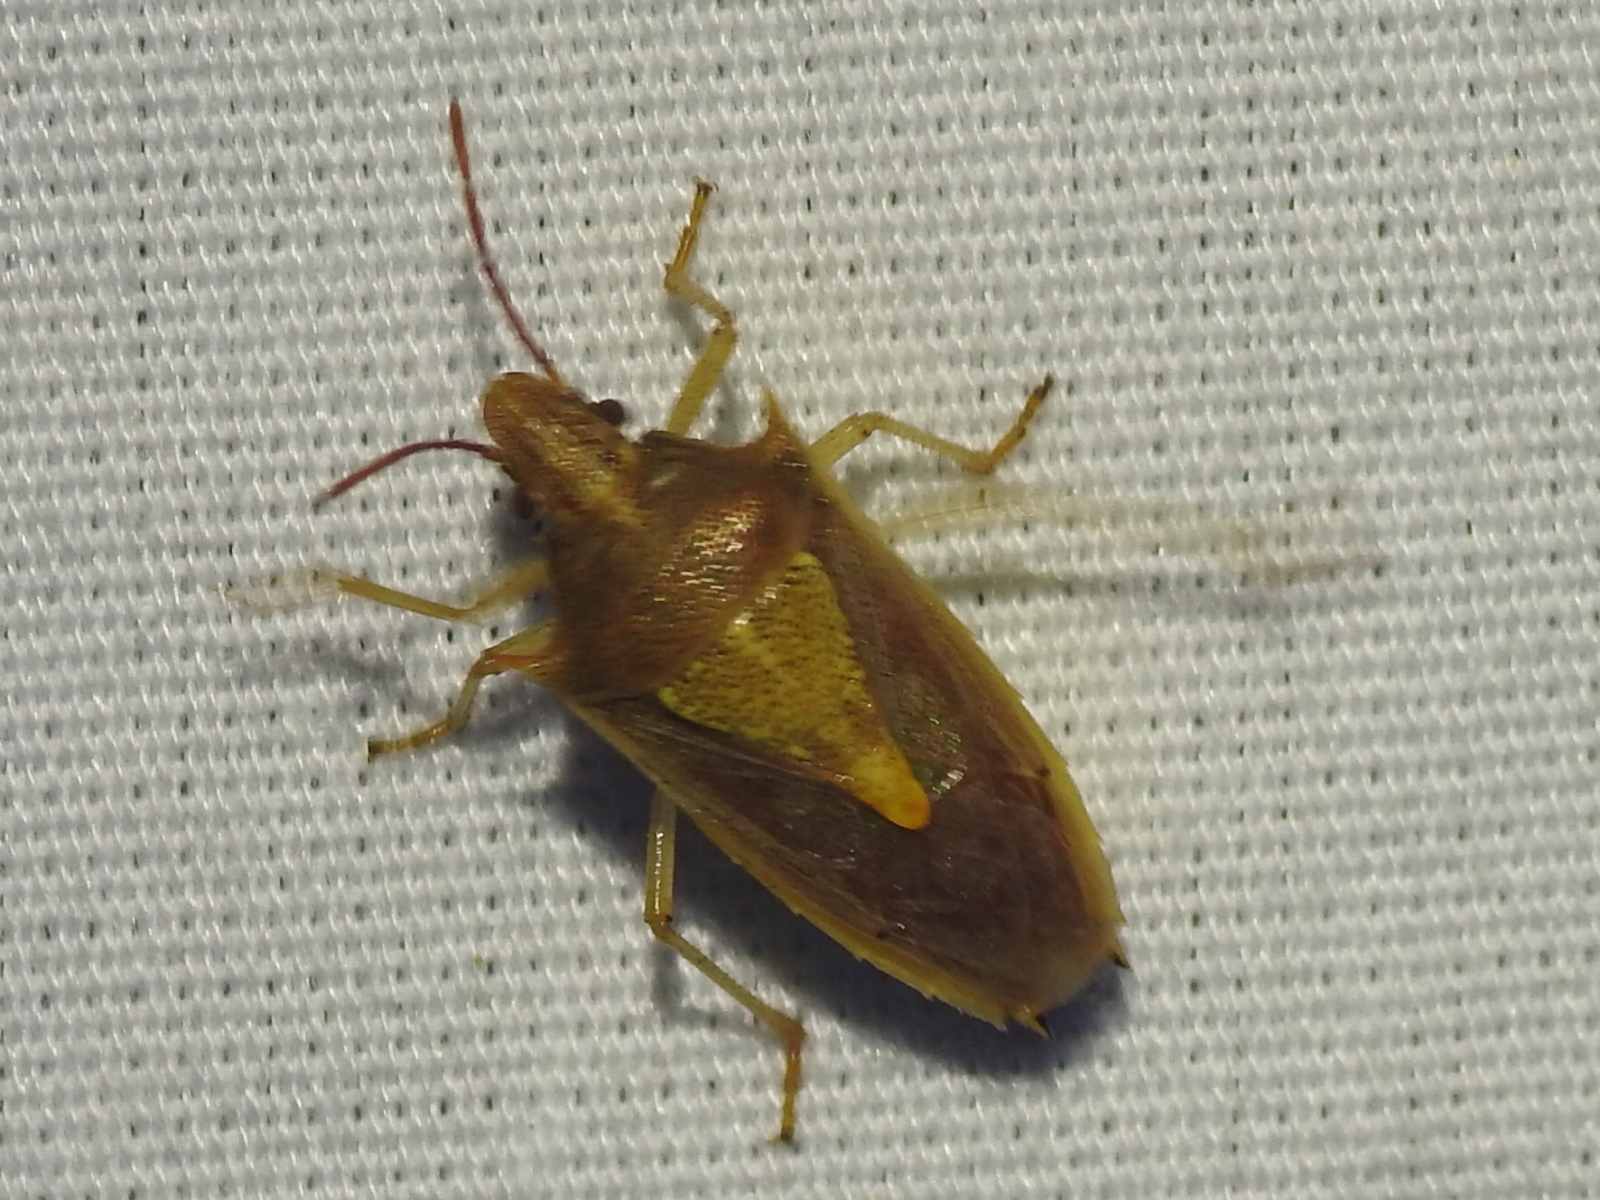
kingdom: Animalia
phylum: Arthropoda
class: Insecta
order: Hemiptera
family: Pentatomidae
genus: Oebalus
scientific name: Oebalus pugnax
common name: Rice stink bug
